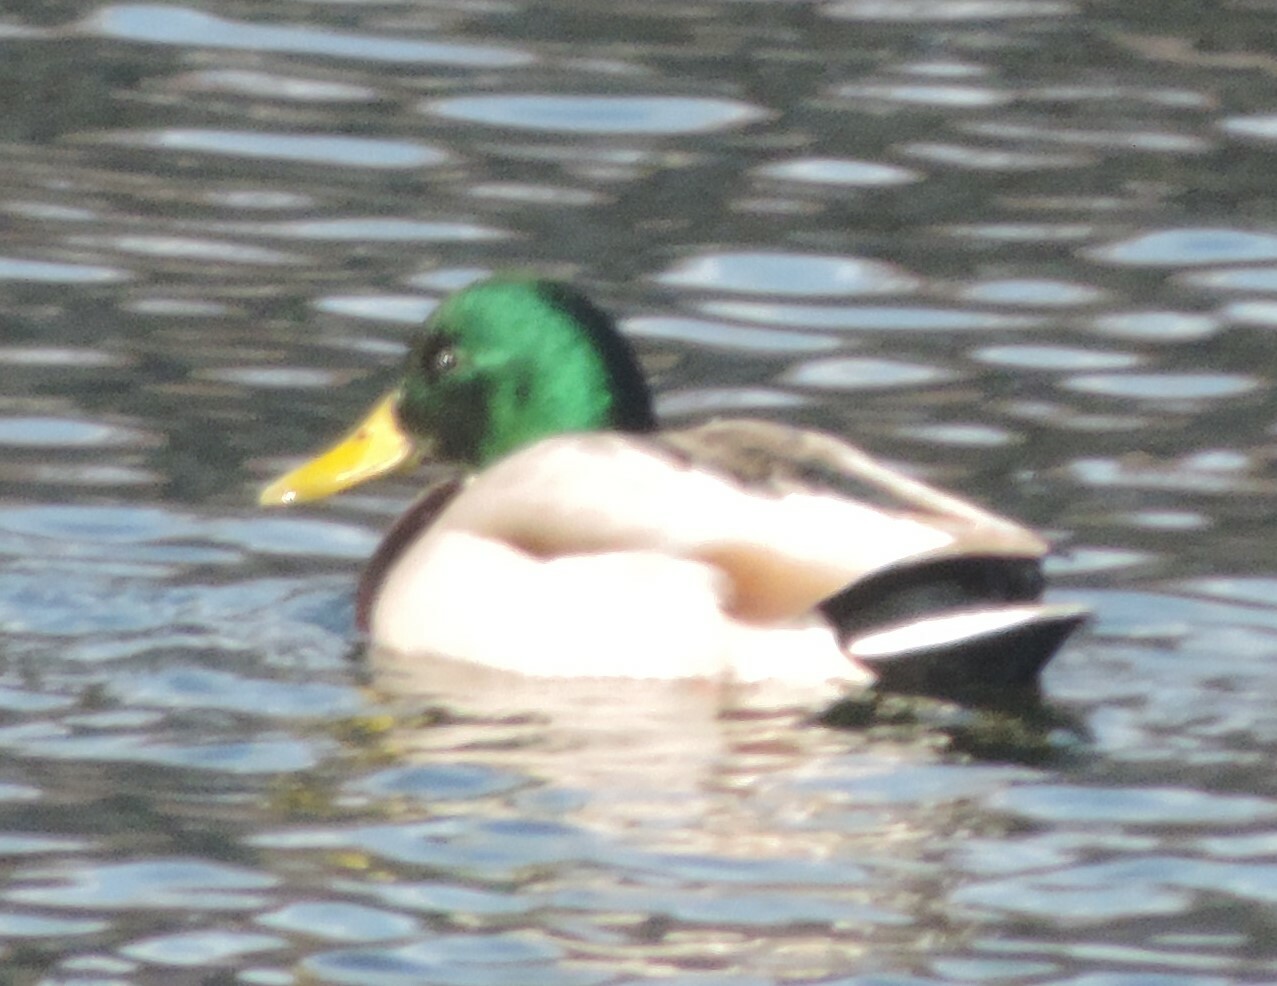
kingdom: Animalia
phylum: Chordata
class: Aves
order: Anseriformes
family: Anatidae
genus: Anas
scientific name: Anas platyrhynchos
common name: Mallard
